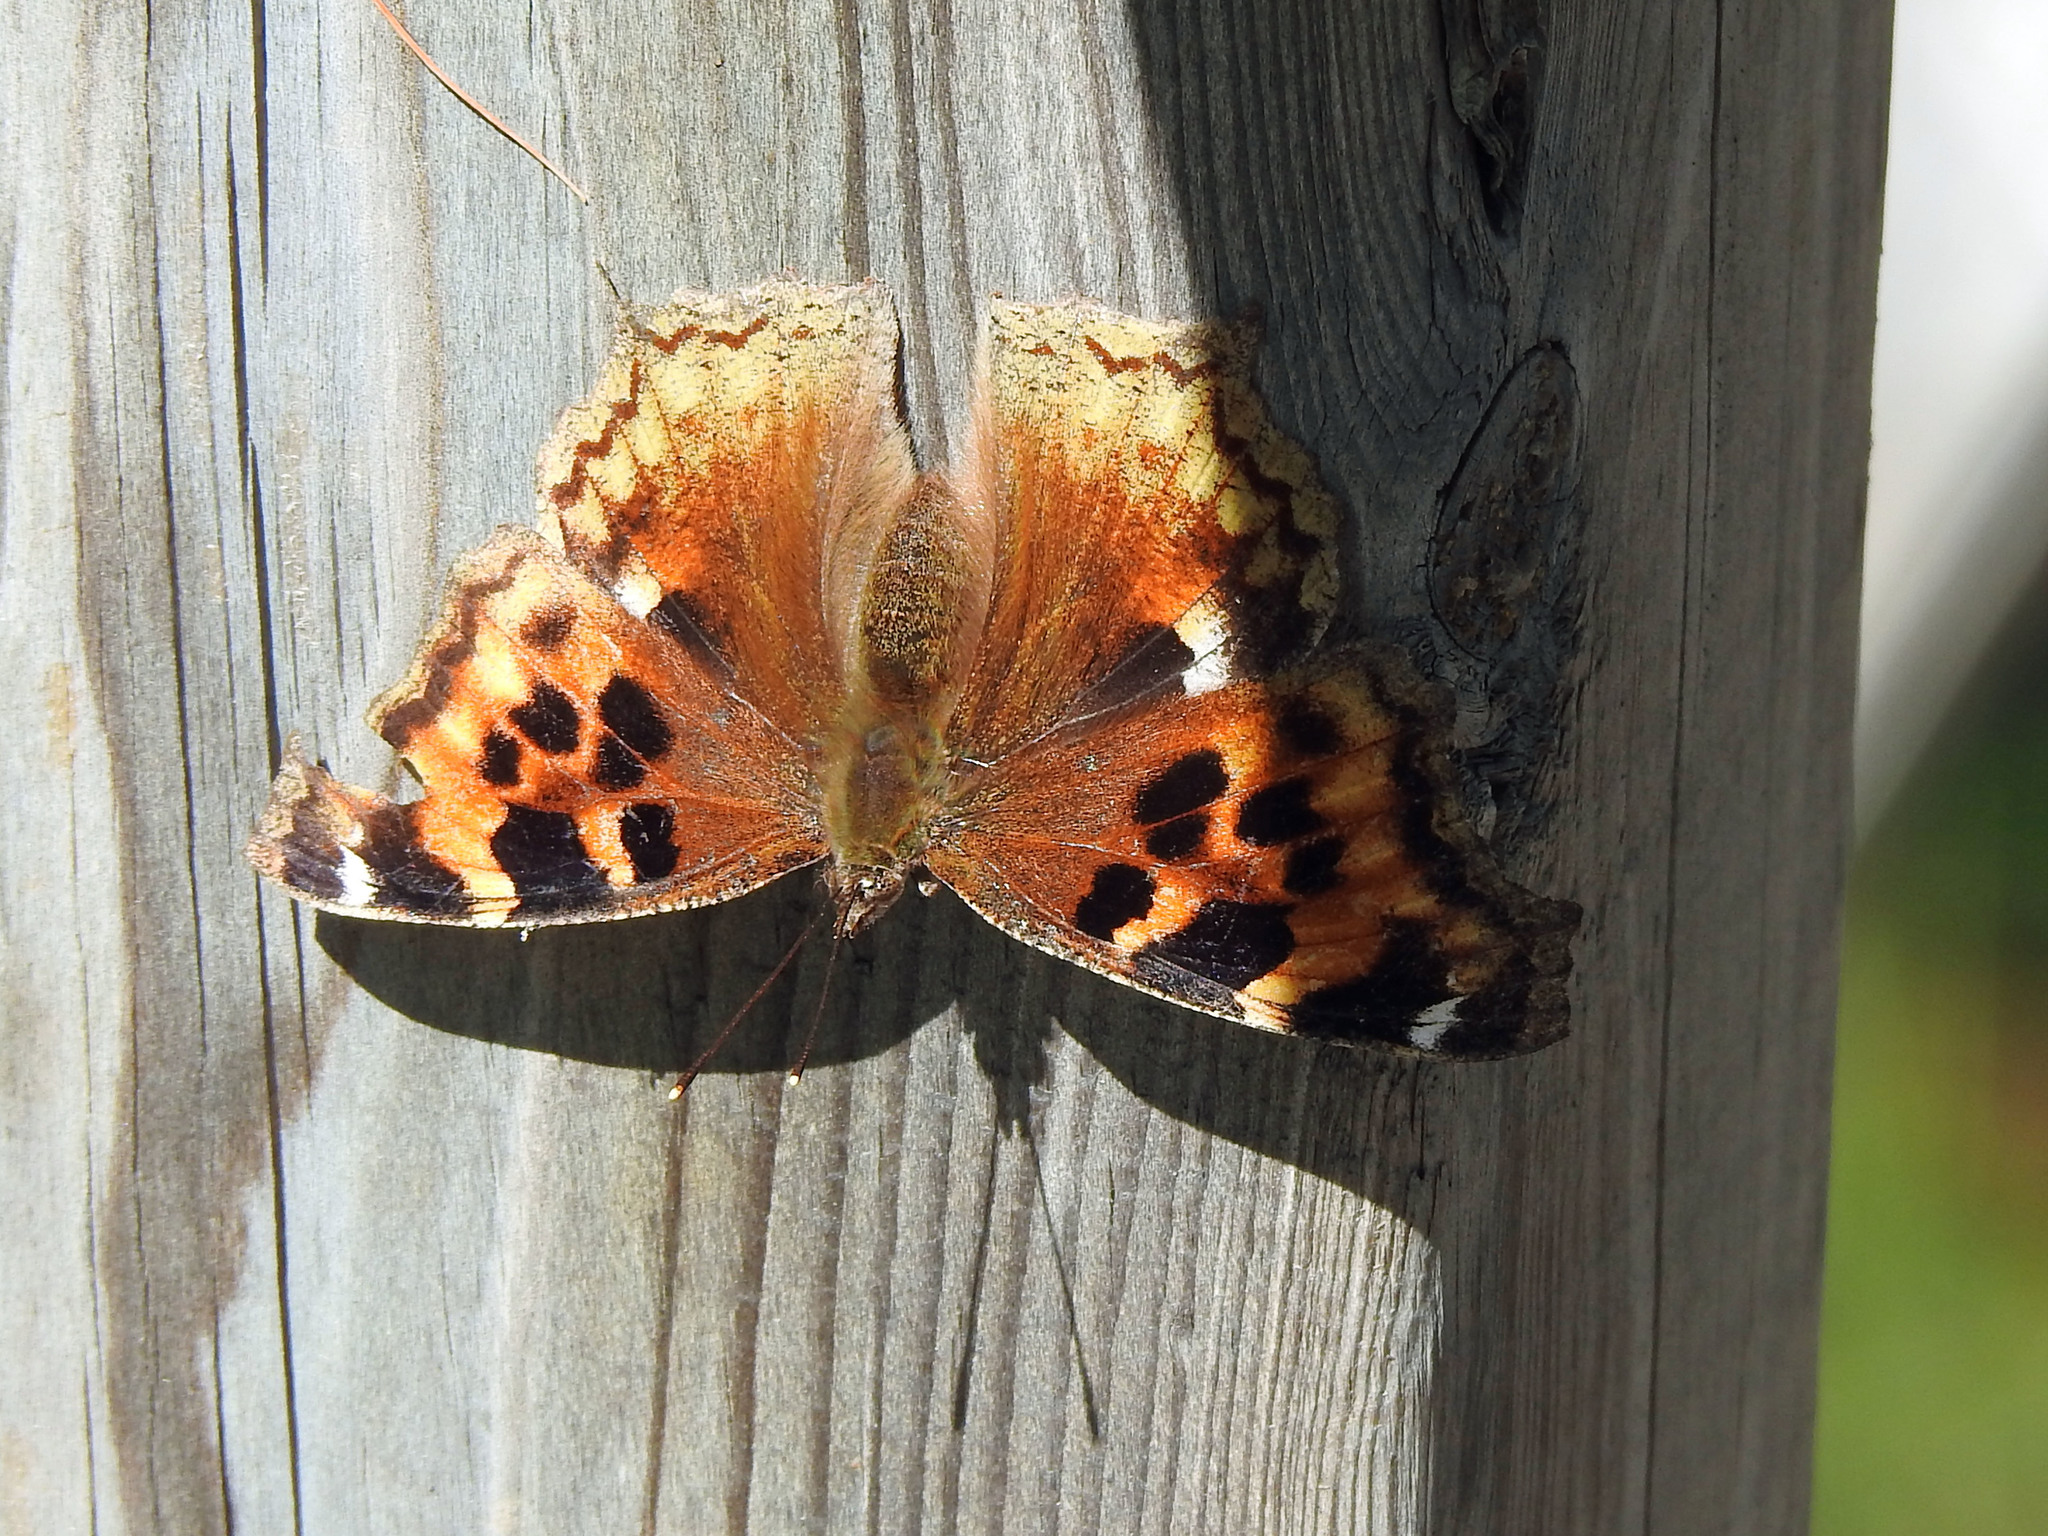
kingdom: Animalia
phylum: Arthropoda
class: Insecta
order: Lepidoptera
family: Nymphalidae
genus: Polygonia
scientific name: Polygonia vaualbum
